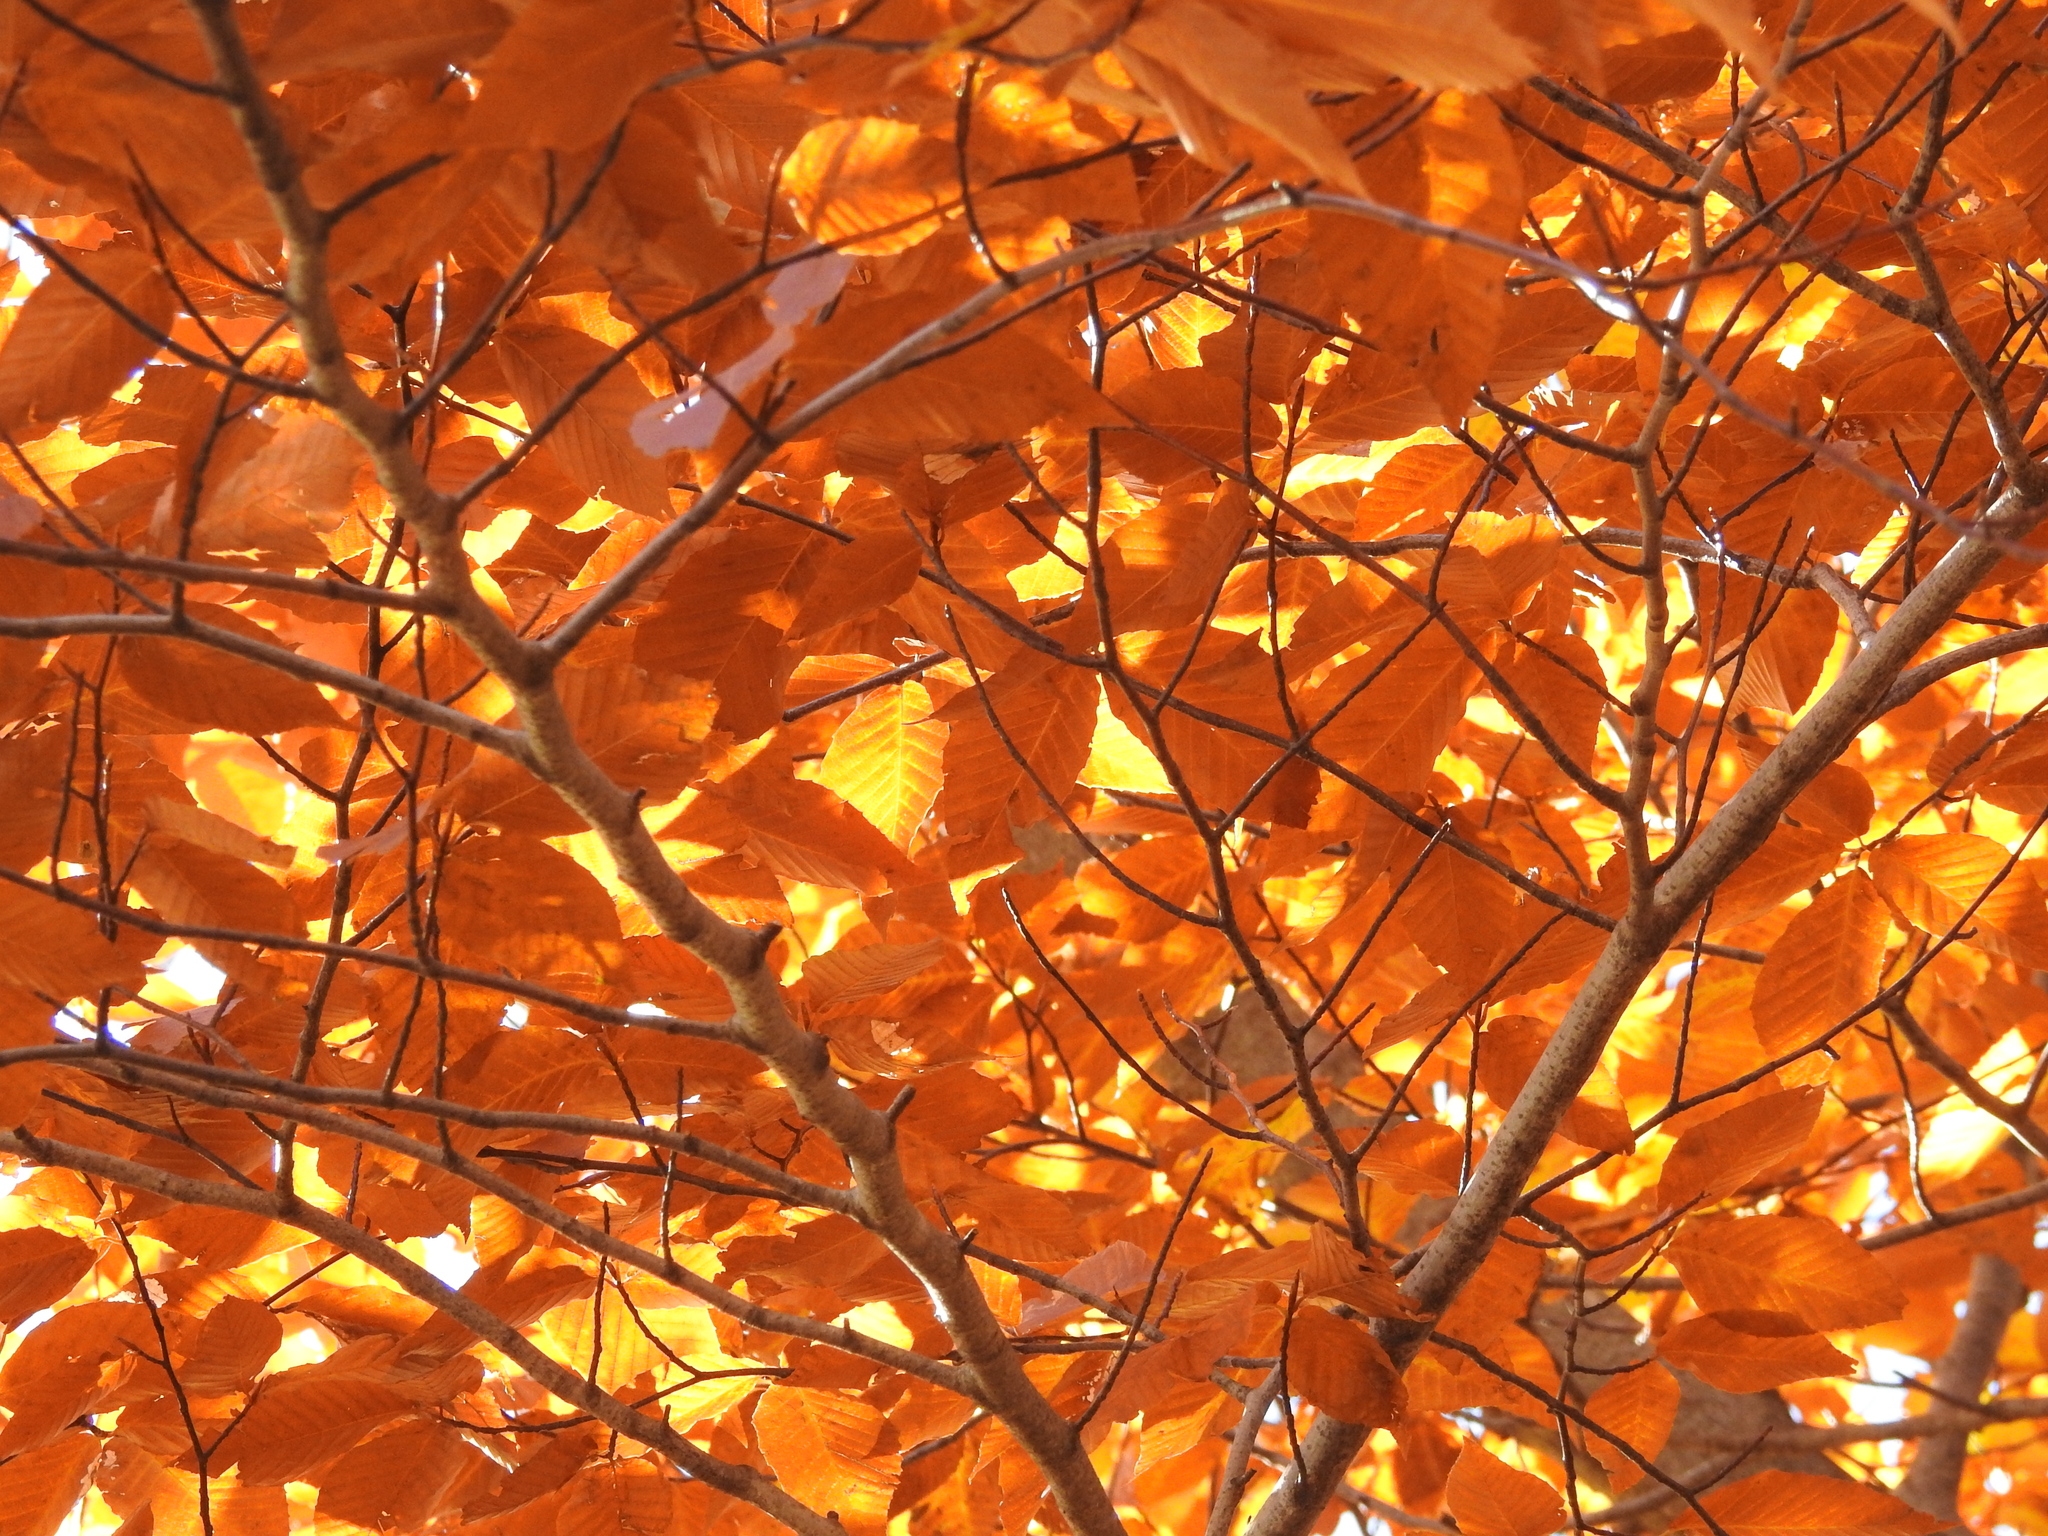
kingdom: Plantae
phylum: Tracheophyta
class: Magnoliopsida
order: Fagales
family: Fagaceae
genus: Fagus
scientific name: Fagus grandifolia
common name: American beech
